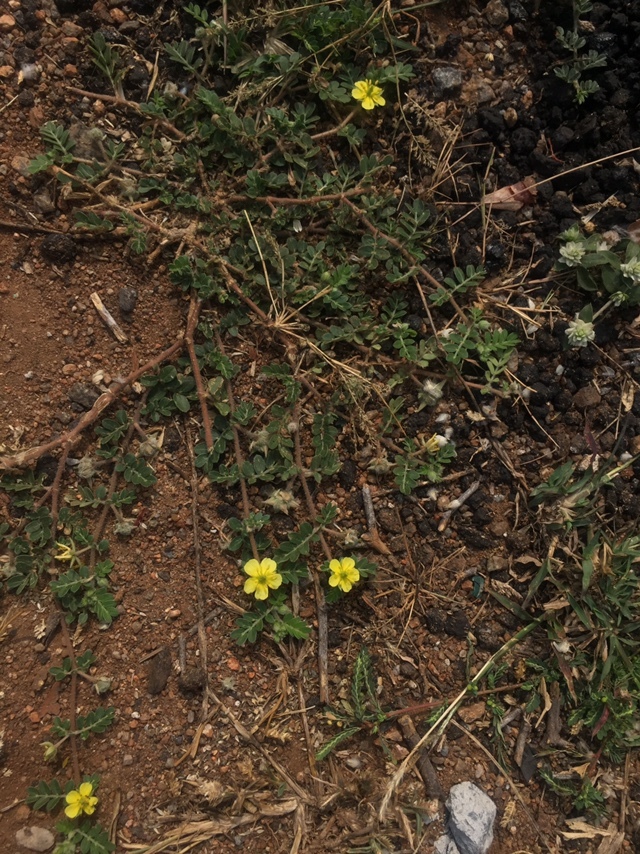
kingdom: Plantae
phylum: Tracheophyta
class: Magnoliopsida
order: Zygophyllales
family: Zygophyllaceae
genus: Tribulus
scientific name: Tribulus terrestris
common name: Puncturevine
